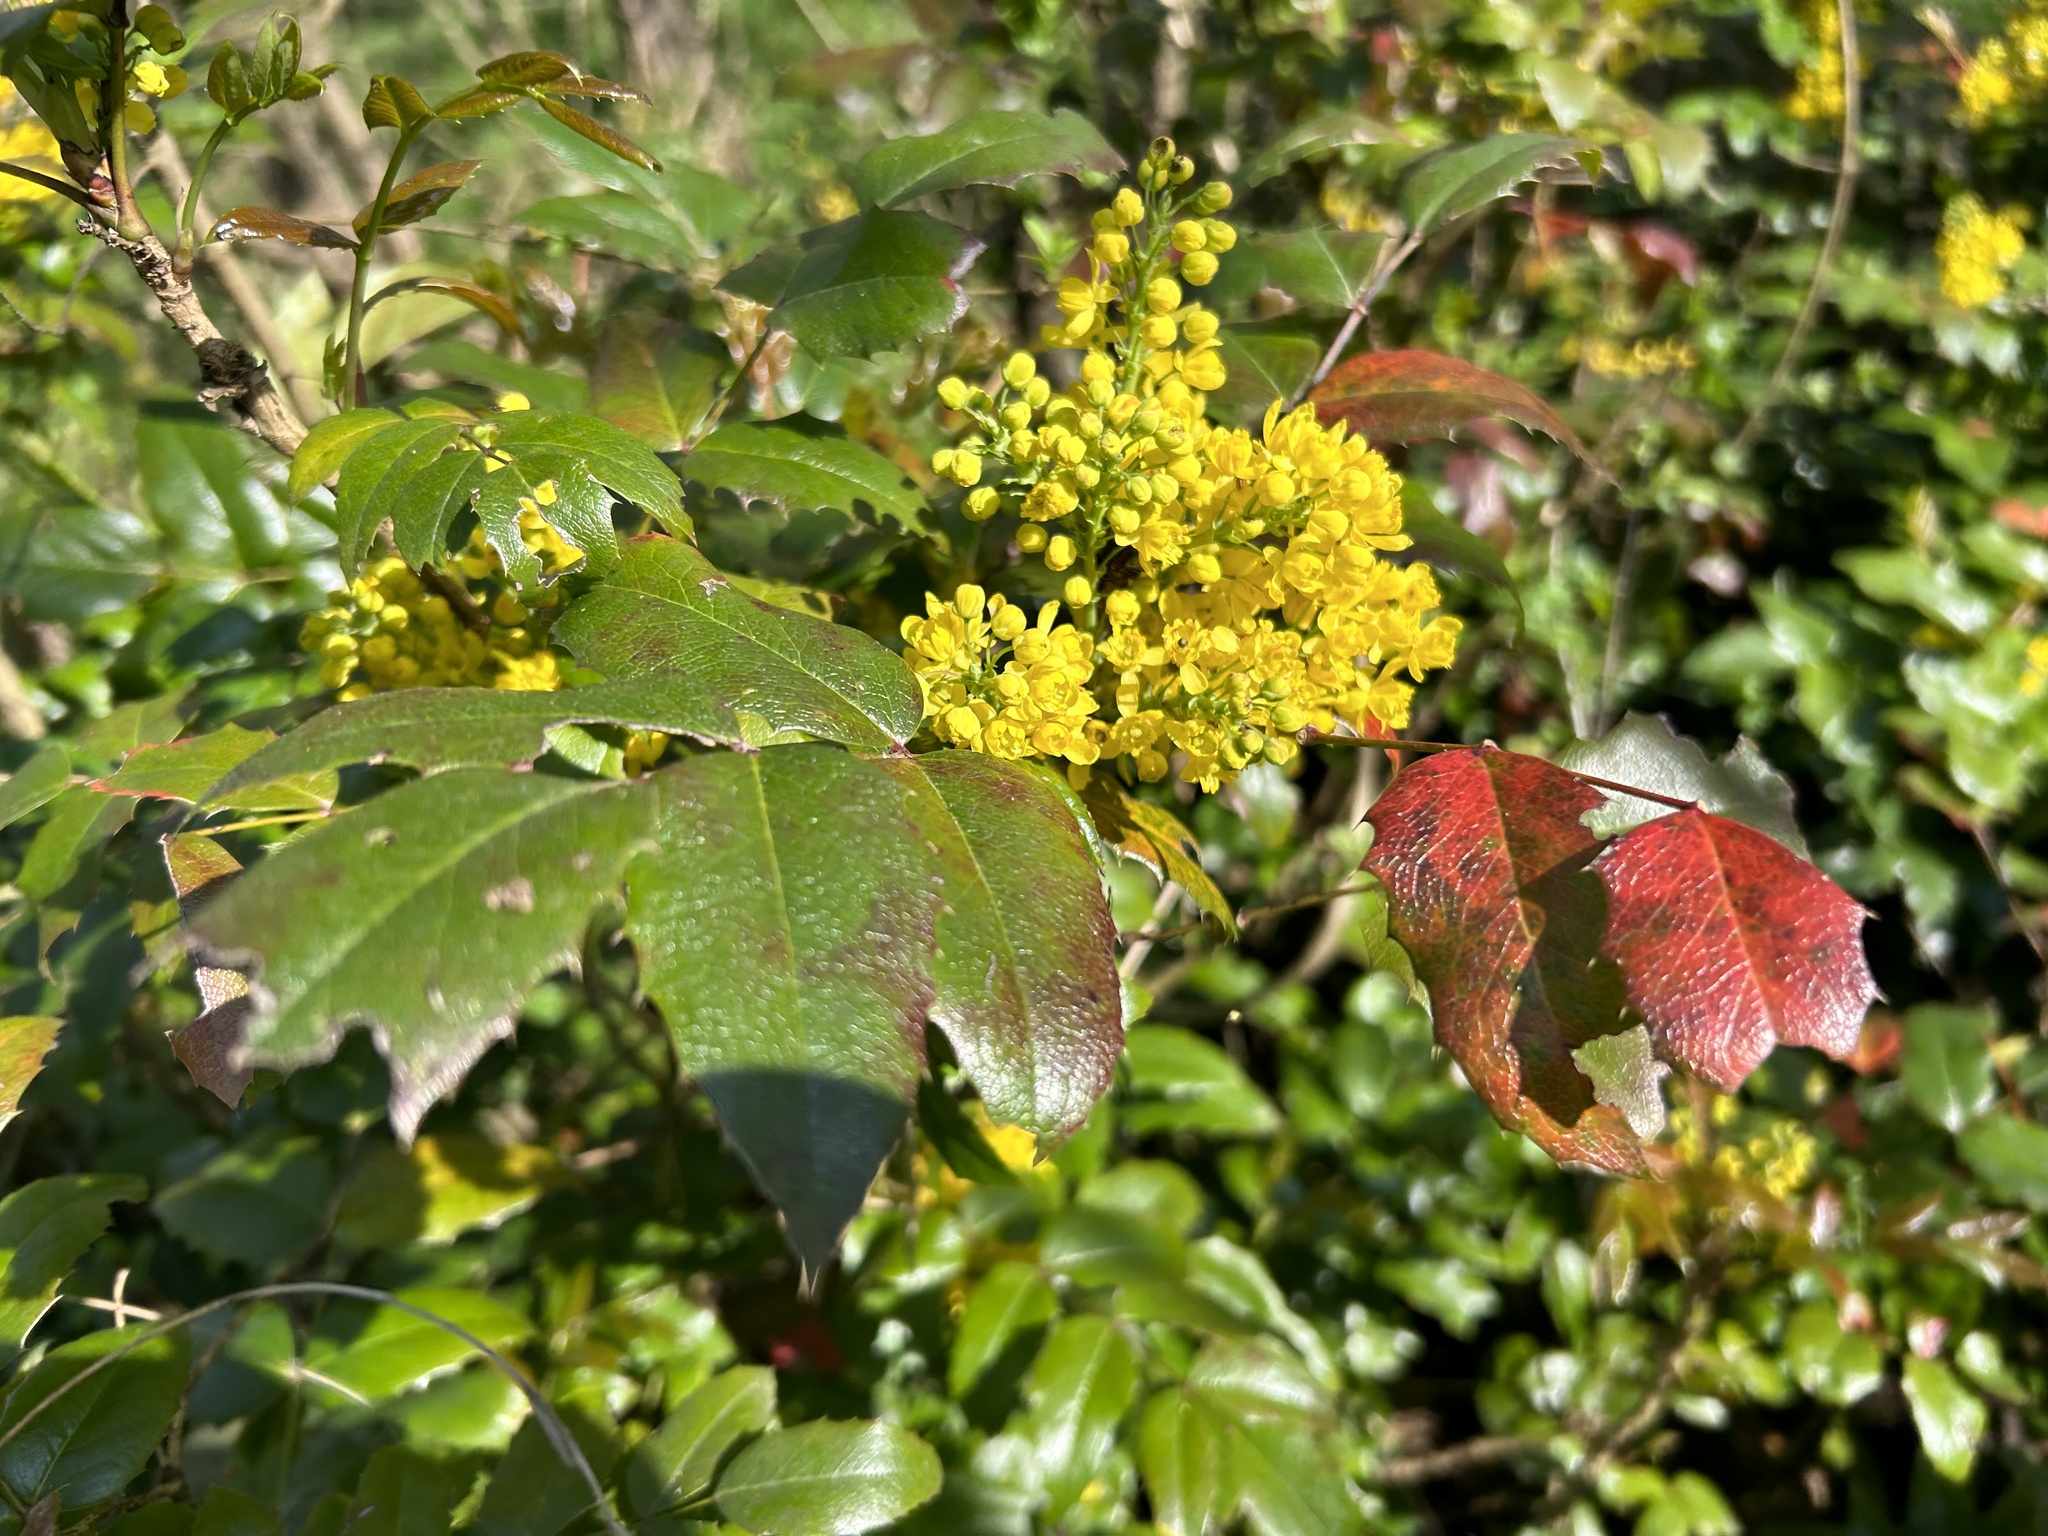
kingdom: Plantae
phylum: Tracheophyta
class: Magnoliopsida
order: Ranunculales
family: Berberidaceae
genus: Mahonia
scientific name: Mahonia aquifolium
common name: Oregon-grape
